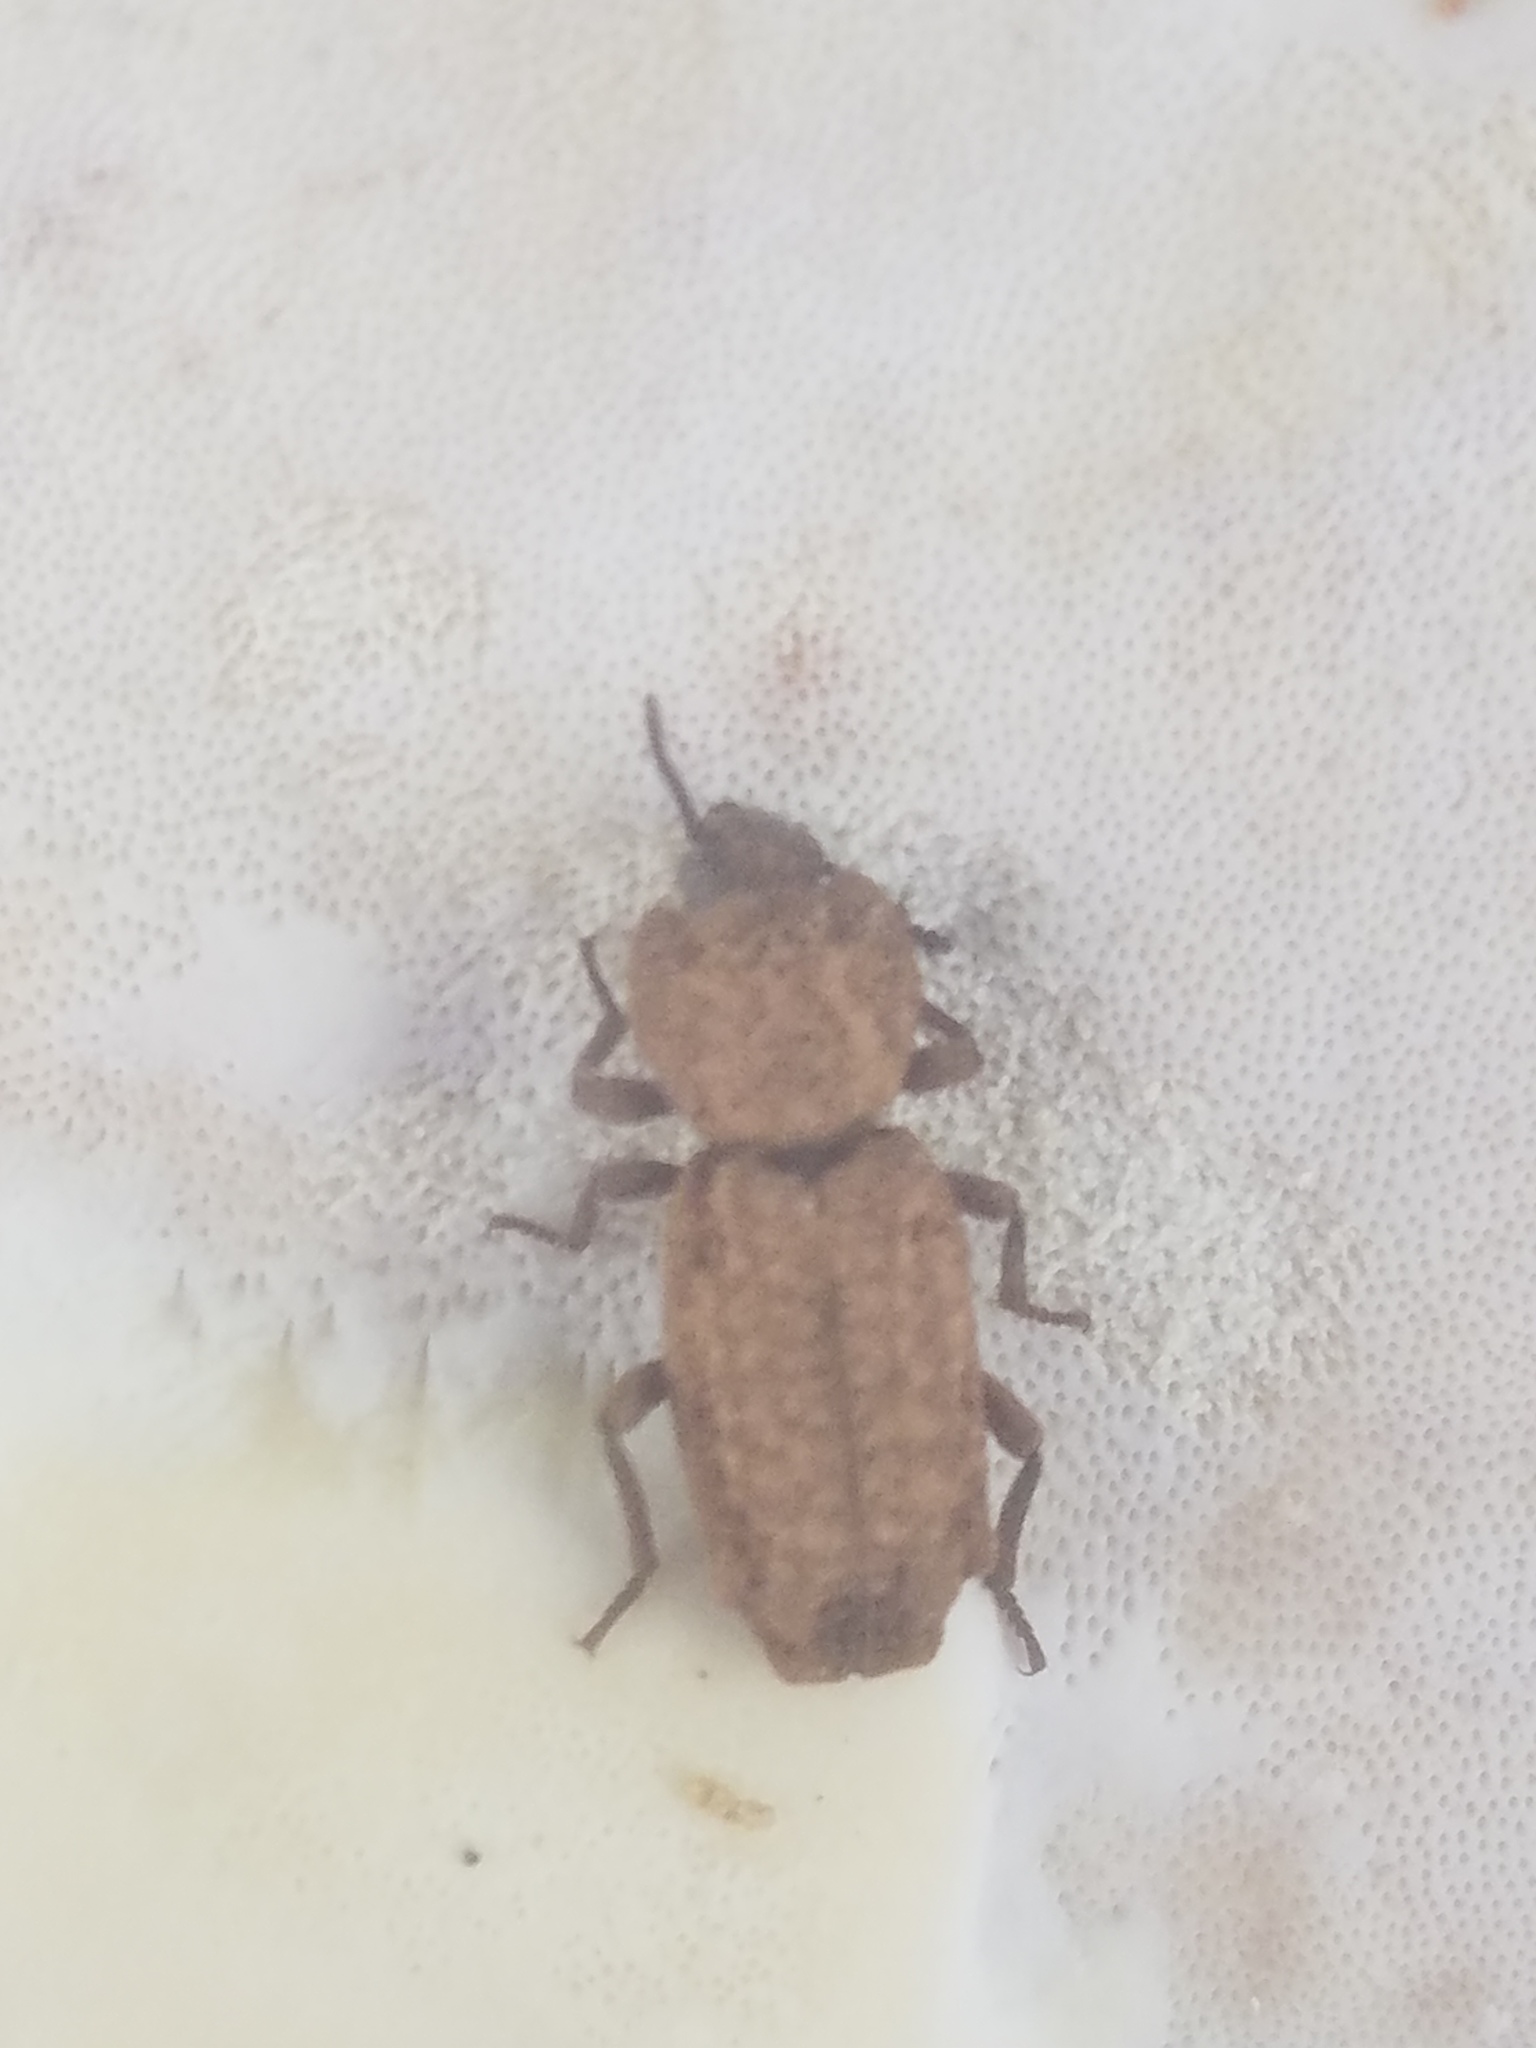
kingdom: Animalia
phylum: Arthropoda
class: Insecta
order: Coleoptera
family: Zopheridae
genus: Phellopsis
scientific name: Phellopsis porcata
